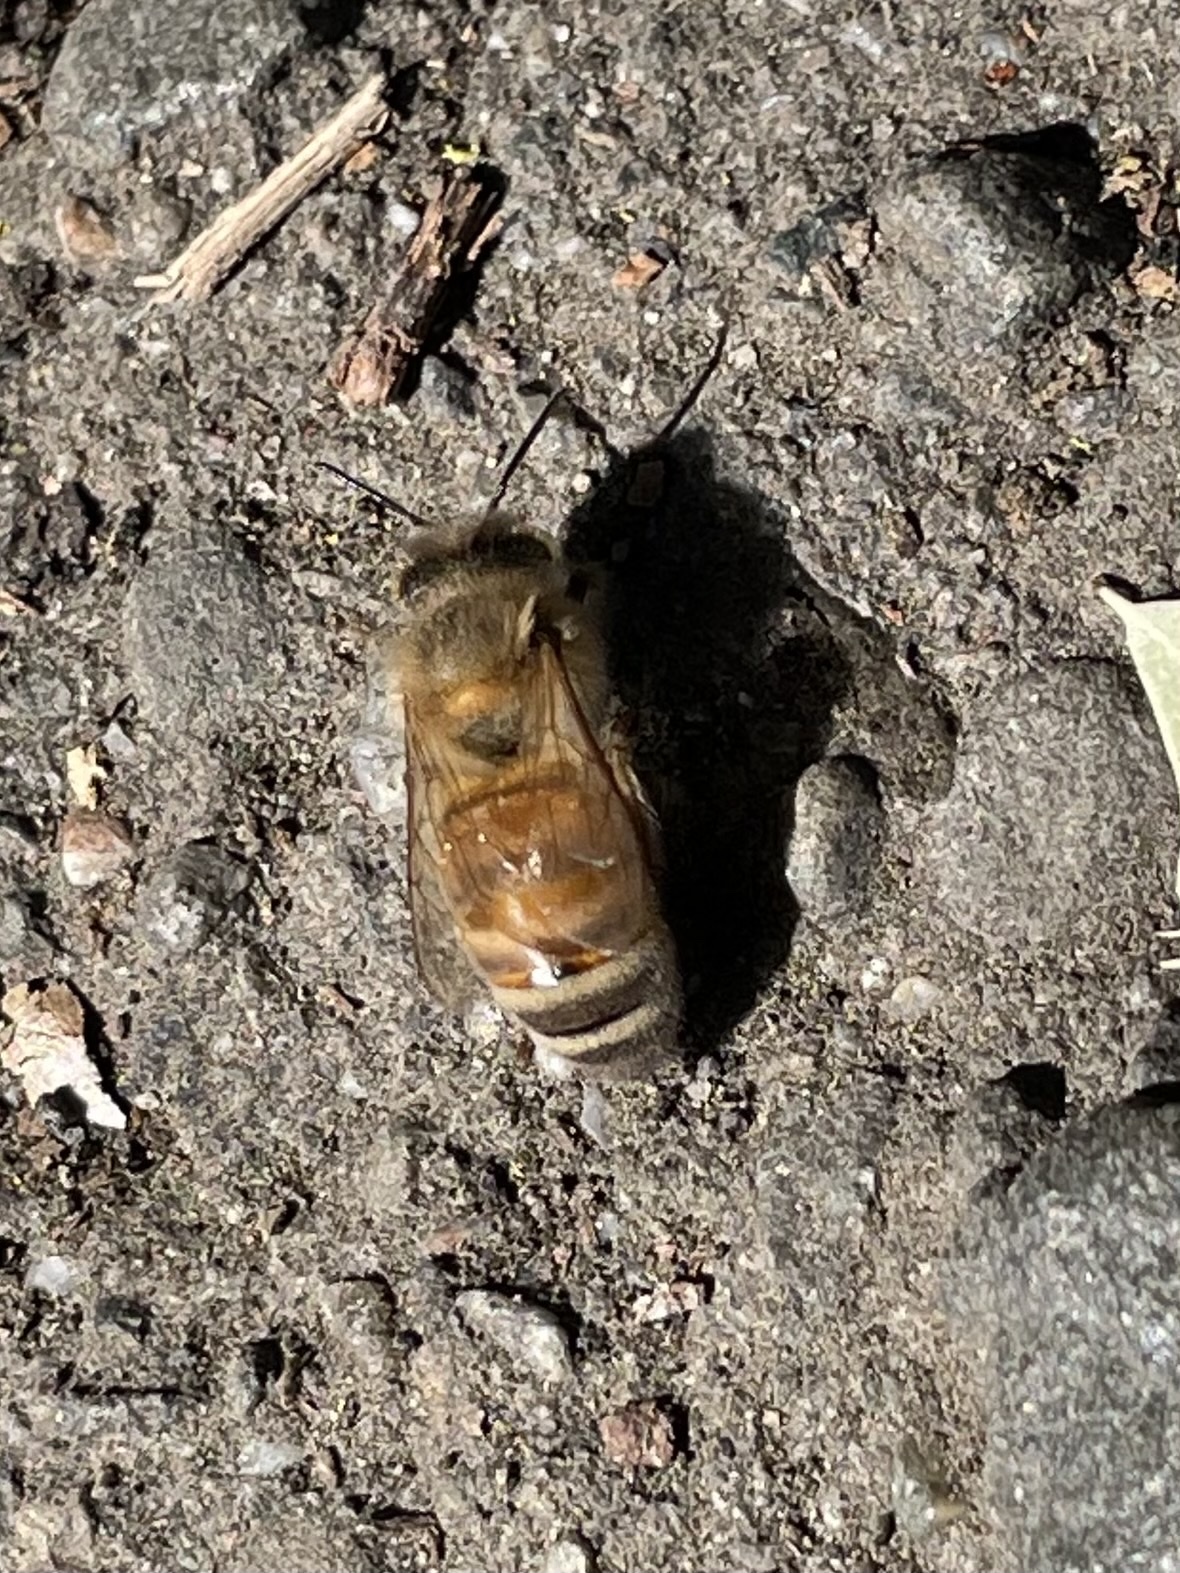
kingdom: Animalia
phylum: Arthropoda
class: Insecta
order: Hymenoptera
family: Apidae
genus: Apis
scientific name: Apis mellifera
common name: Honey bee
